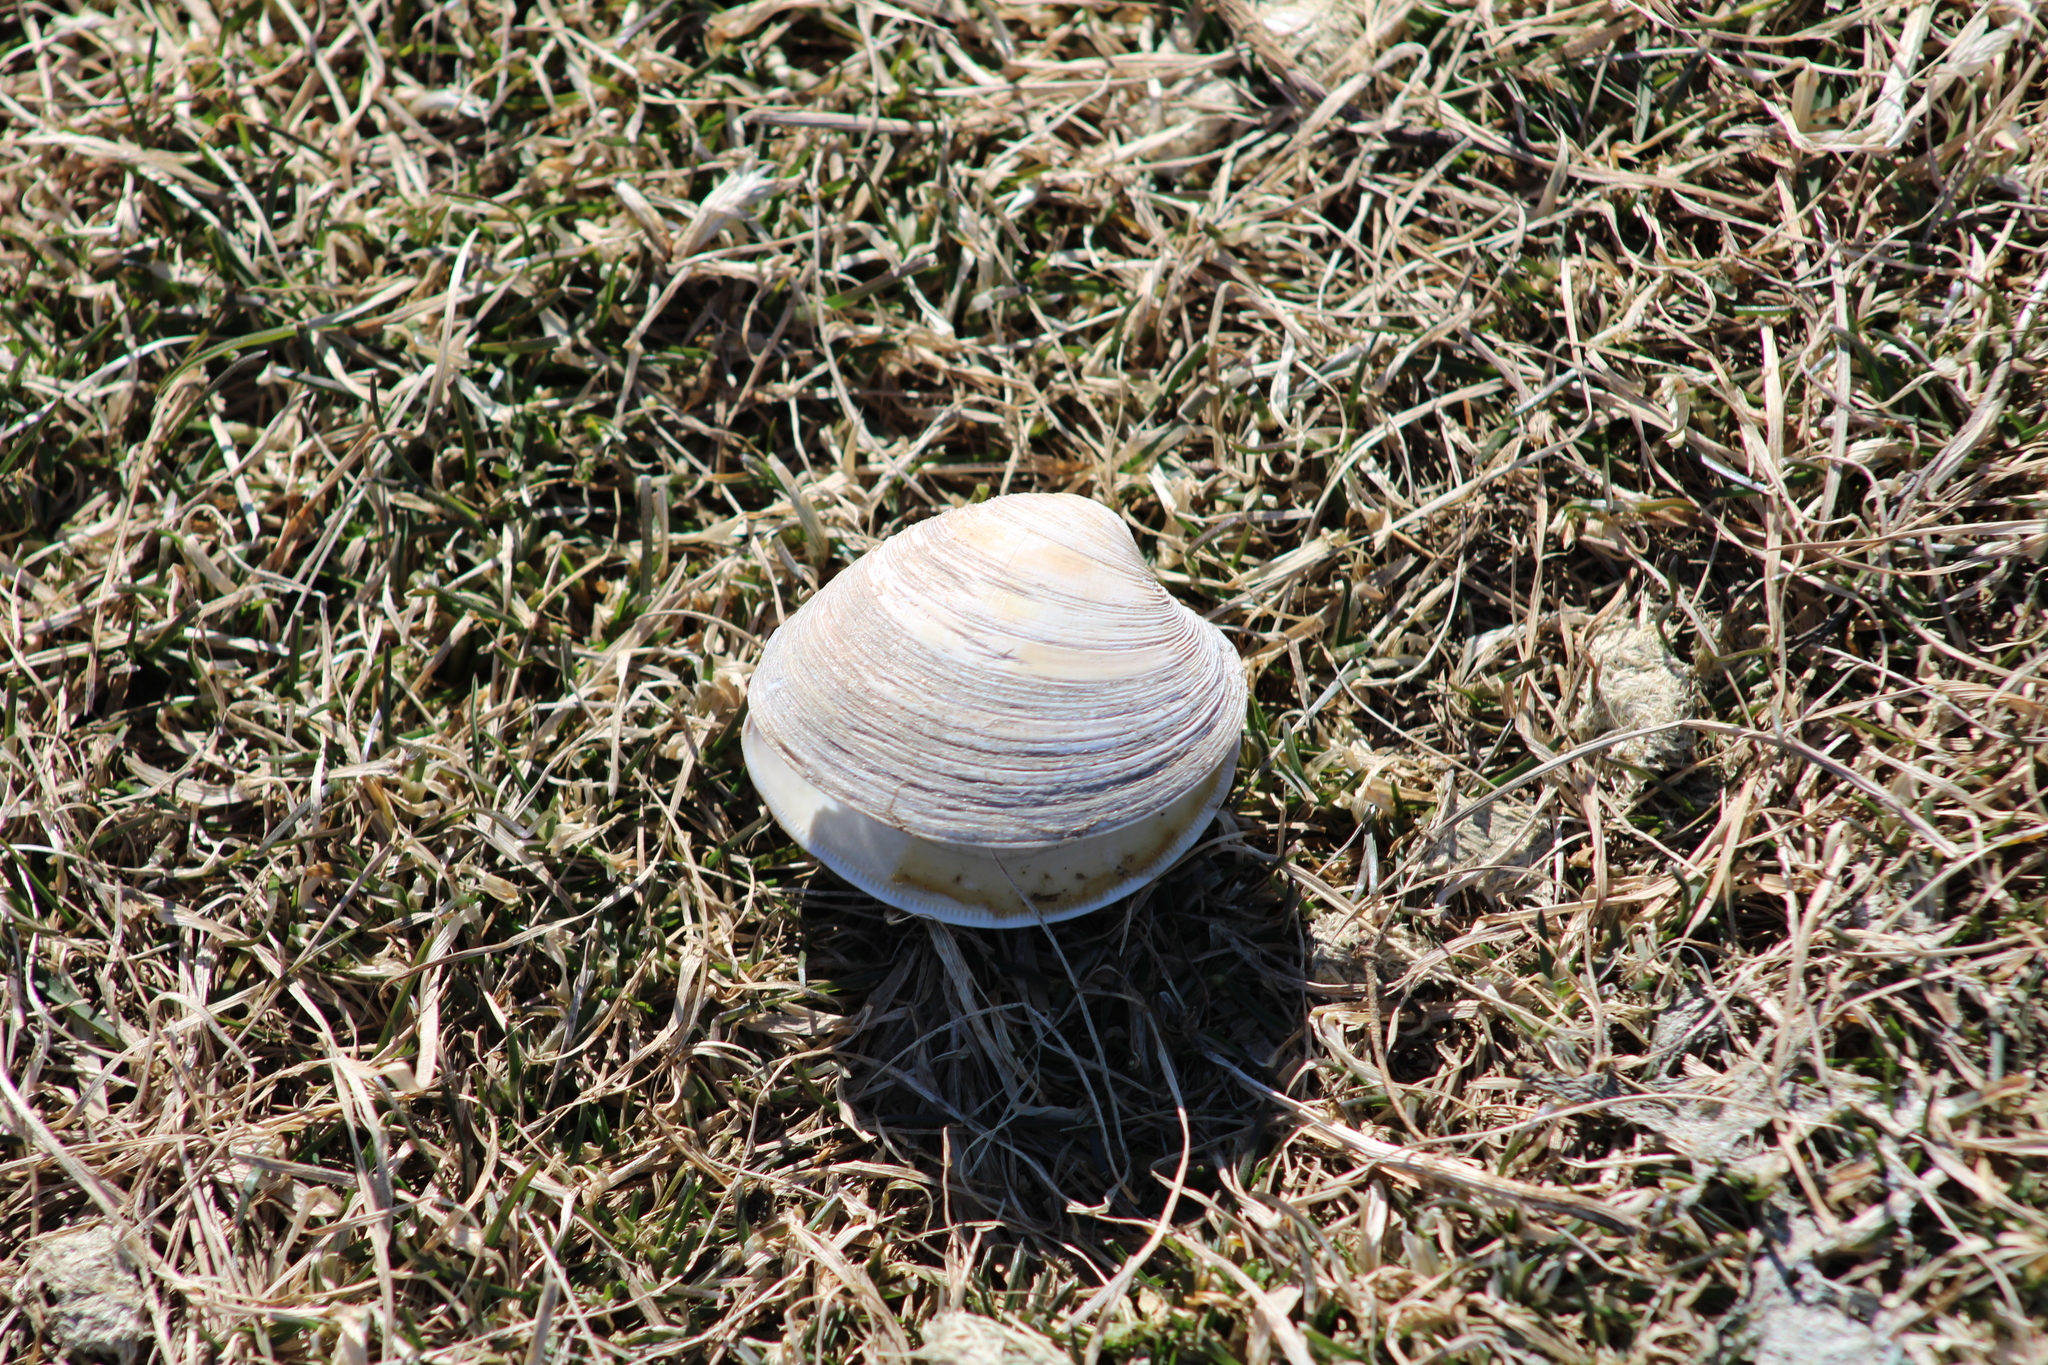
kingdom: Animalia
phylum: Mollusca
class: Bivalvia
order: Venerida
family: Veneridae
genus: Mercenaria
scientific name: Mercenaria mercenaria
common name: American hard-shelled clam
